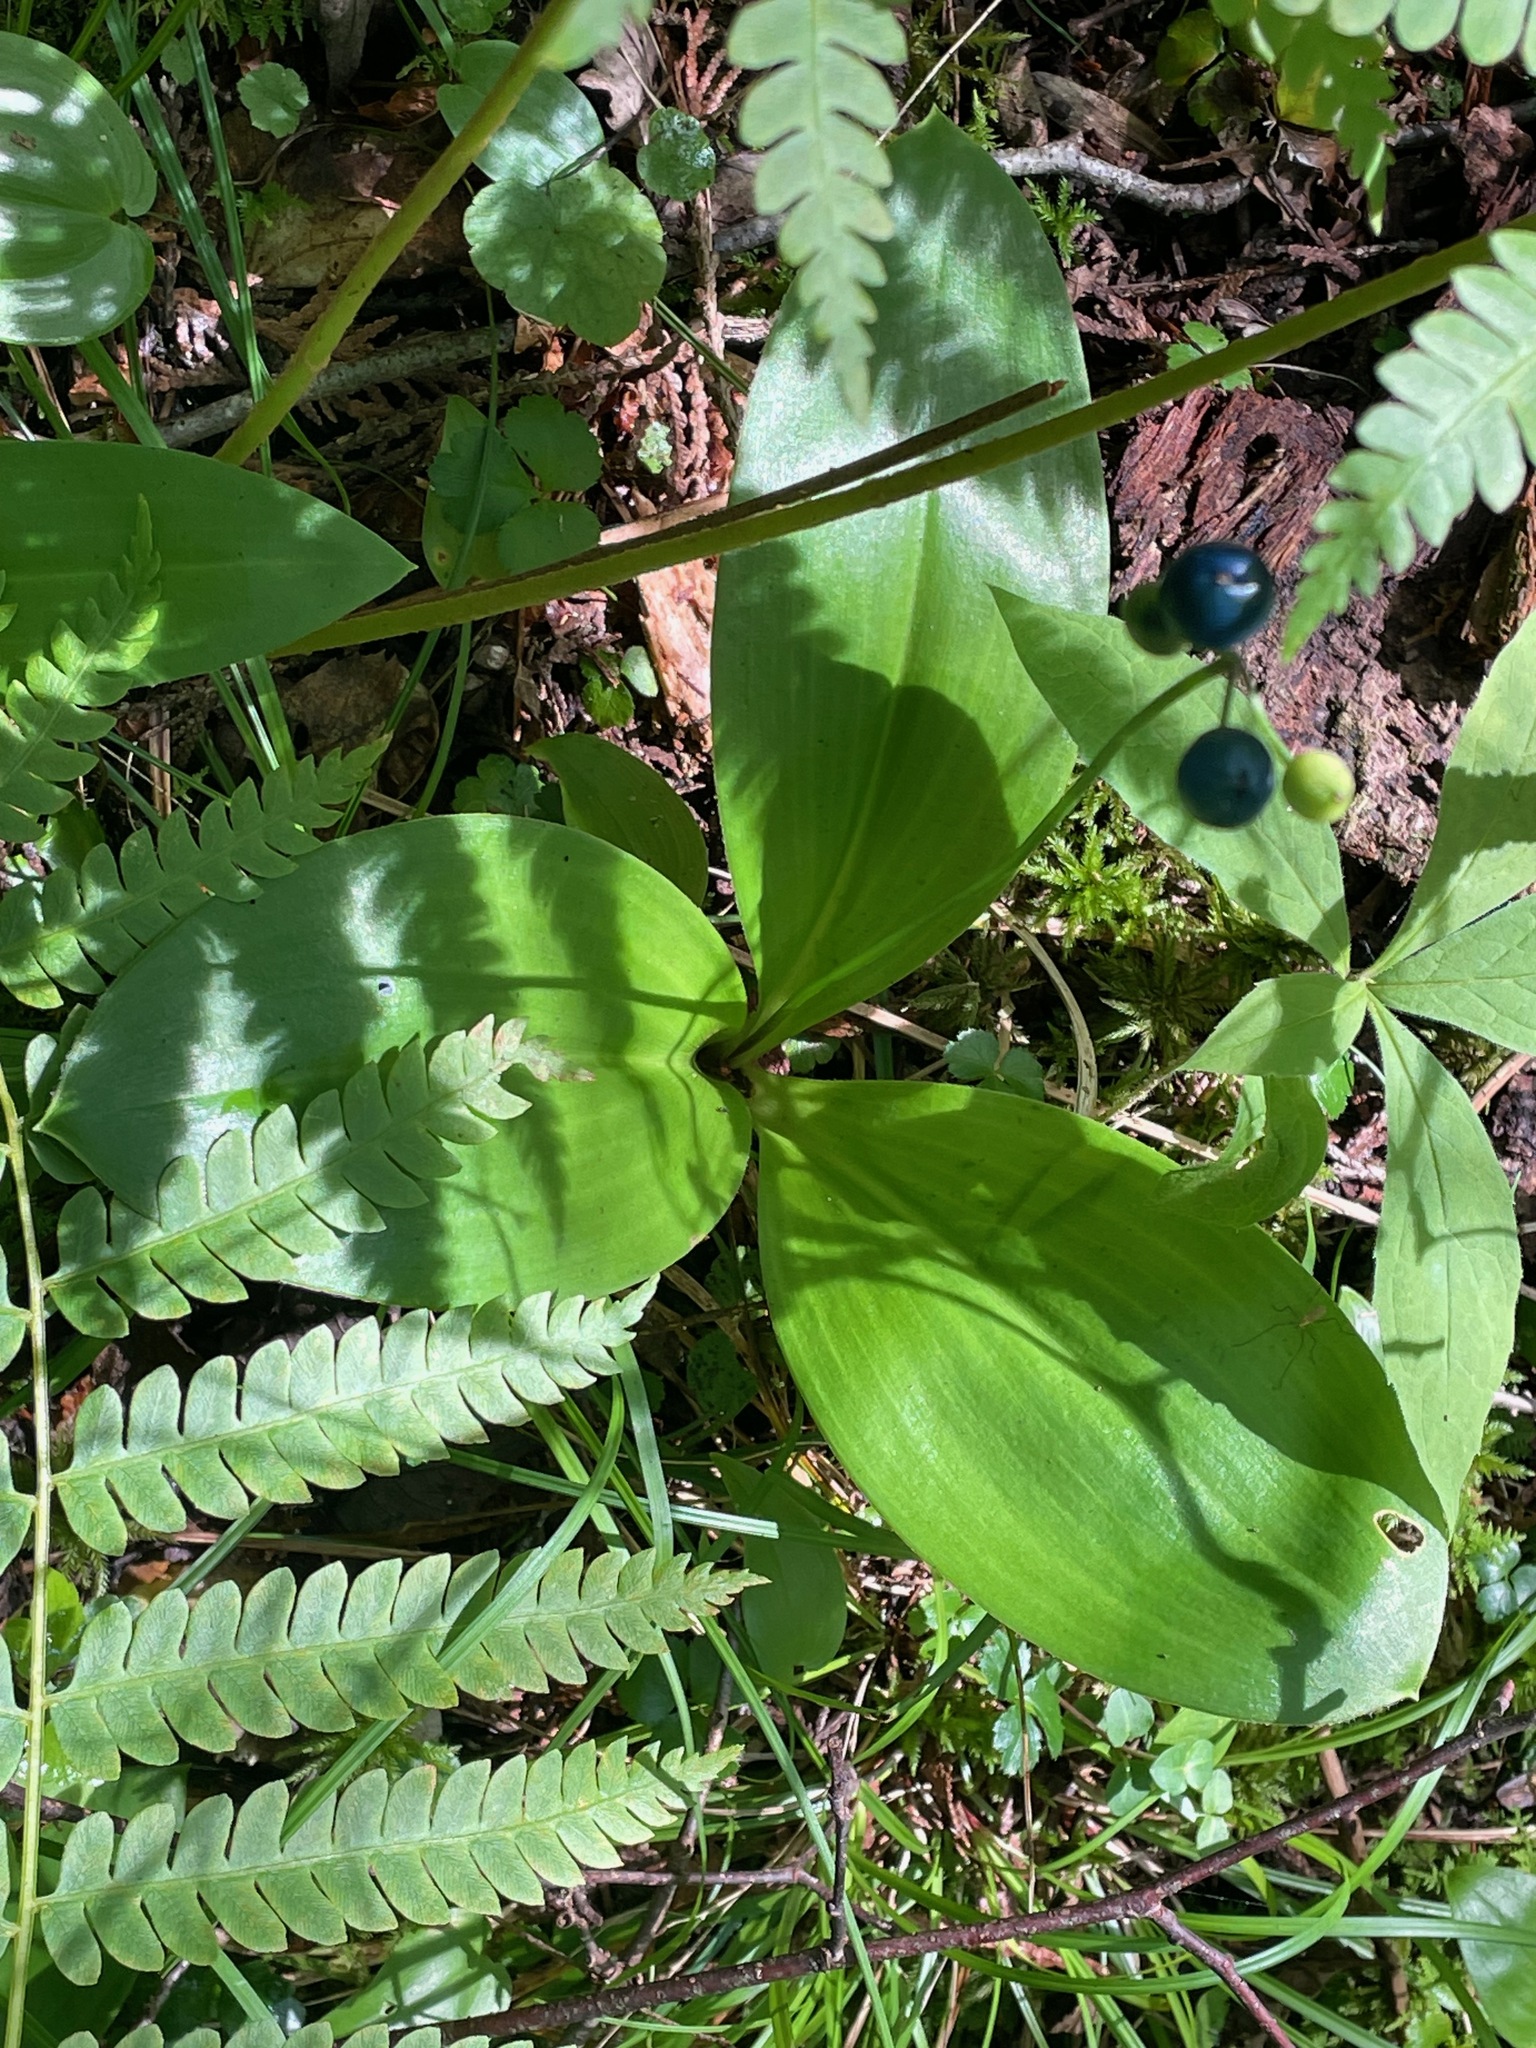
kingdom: Plantae
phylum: Tracheophyta
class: Liliopsida
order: Liliales
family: Liliaceae
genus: Clintonia
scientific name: Clintonia borealis
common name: Yellow clintonia
